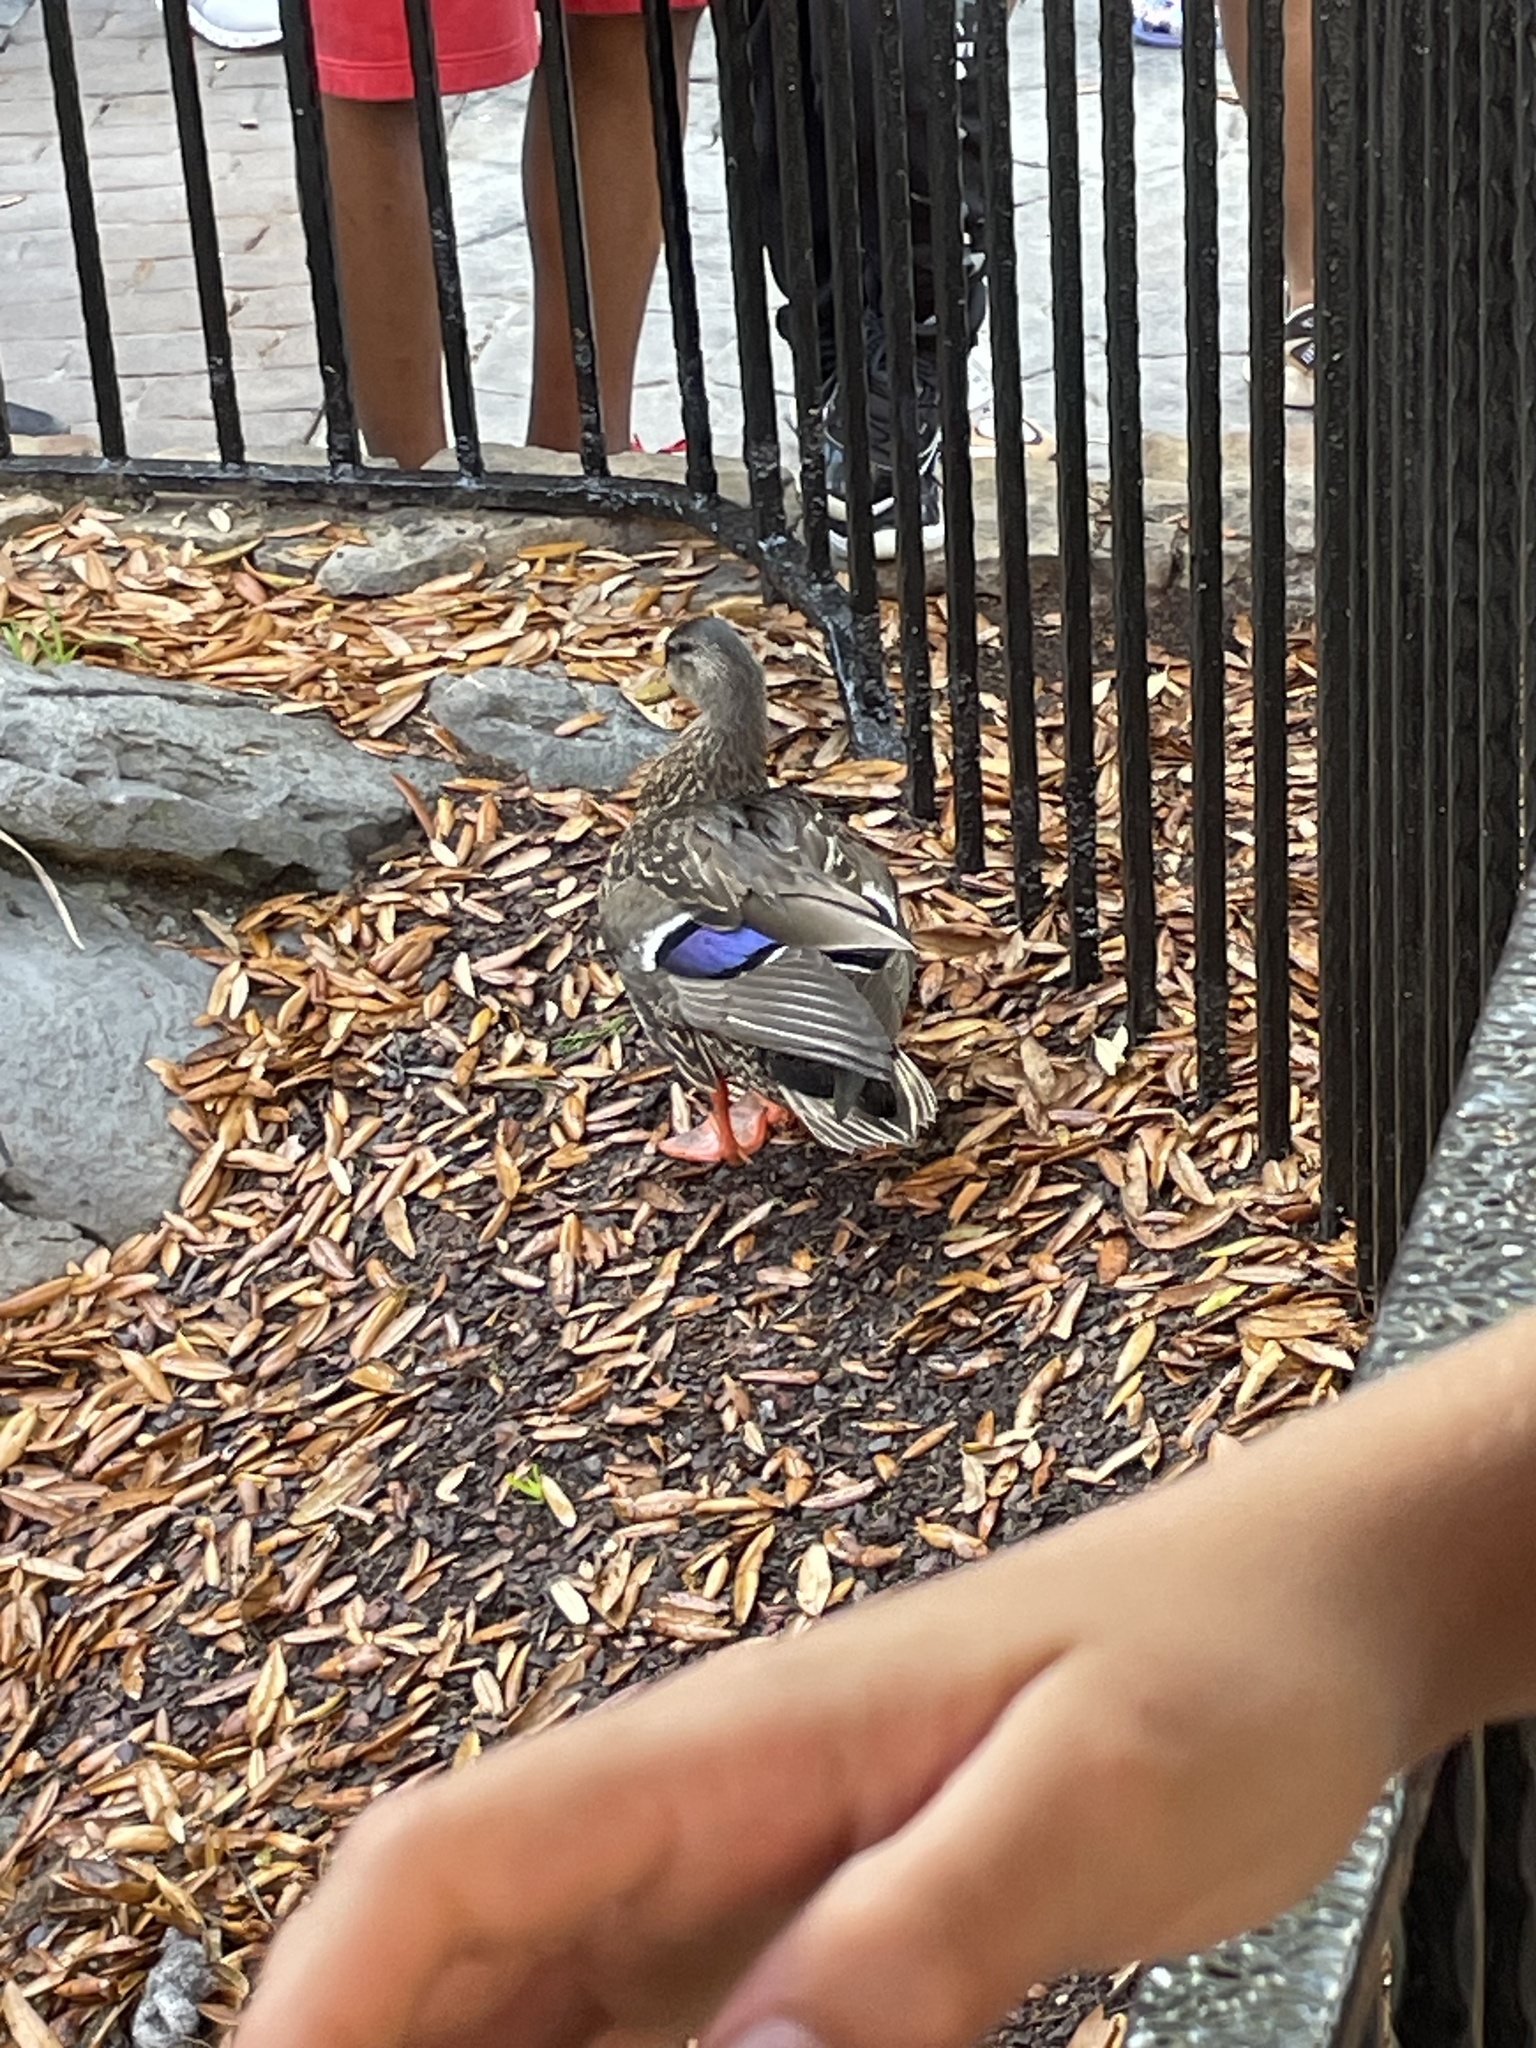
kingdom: Animalia
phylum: Chordata
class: Aves
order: Anseriformes
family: Anatidae
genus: Anas
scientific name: Anas platyrhynchos
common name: Mallard
